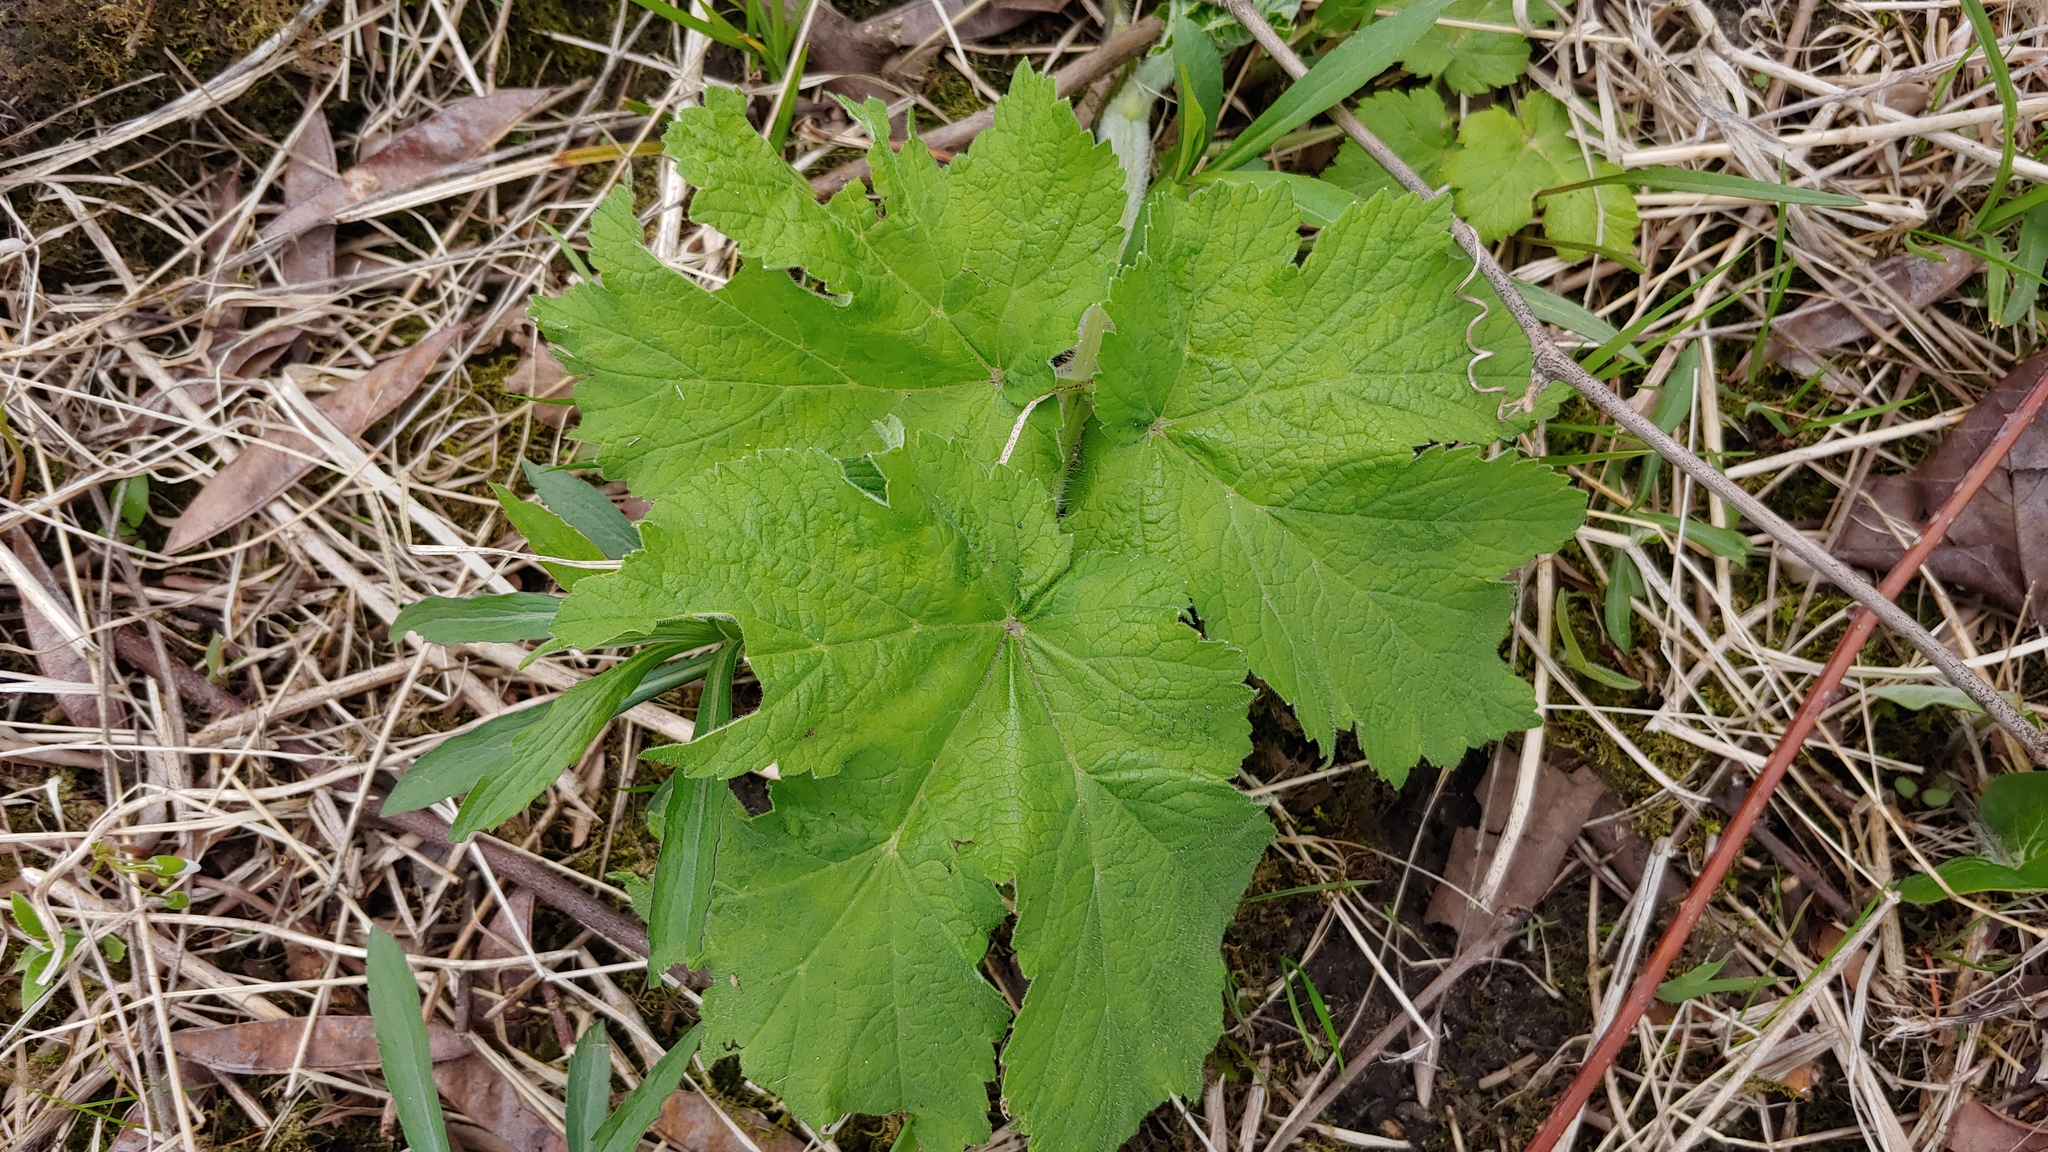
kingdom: Plantae
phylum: Tracheophyta
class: Magnoliopsida
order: Apiales
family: Apiaceae
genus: Heracleum
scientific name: Heracleum maximum
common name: American cow parsnip
